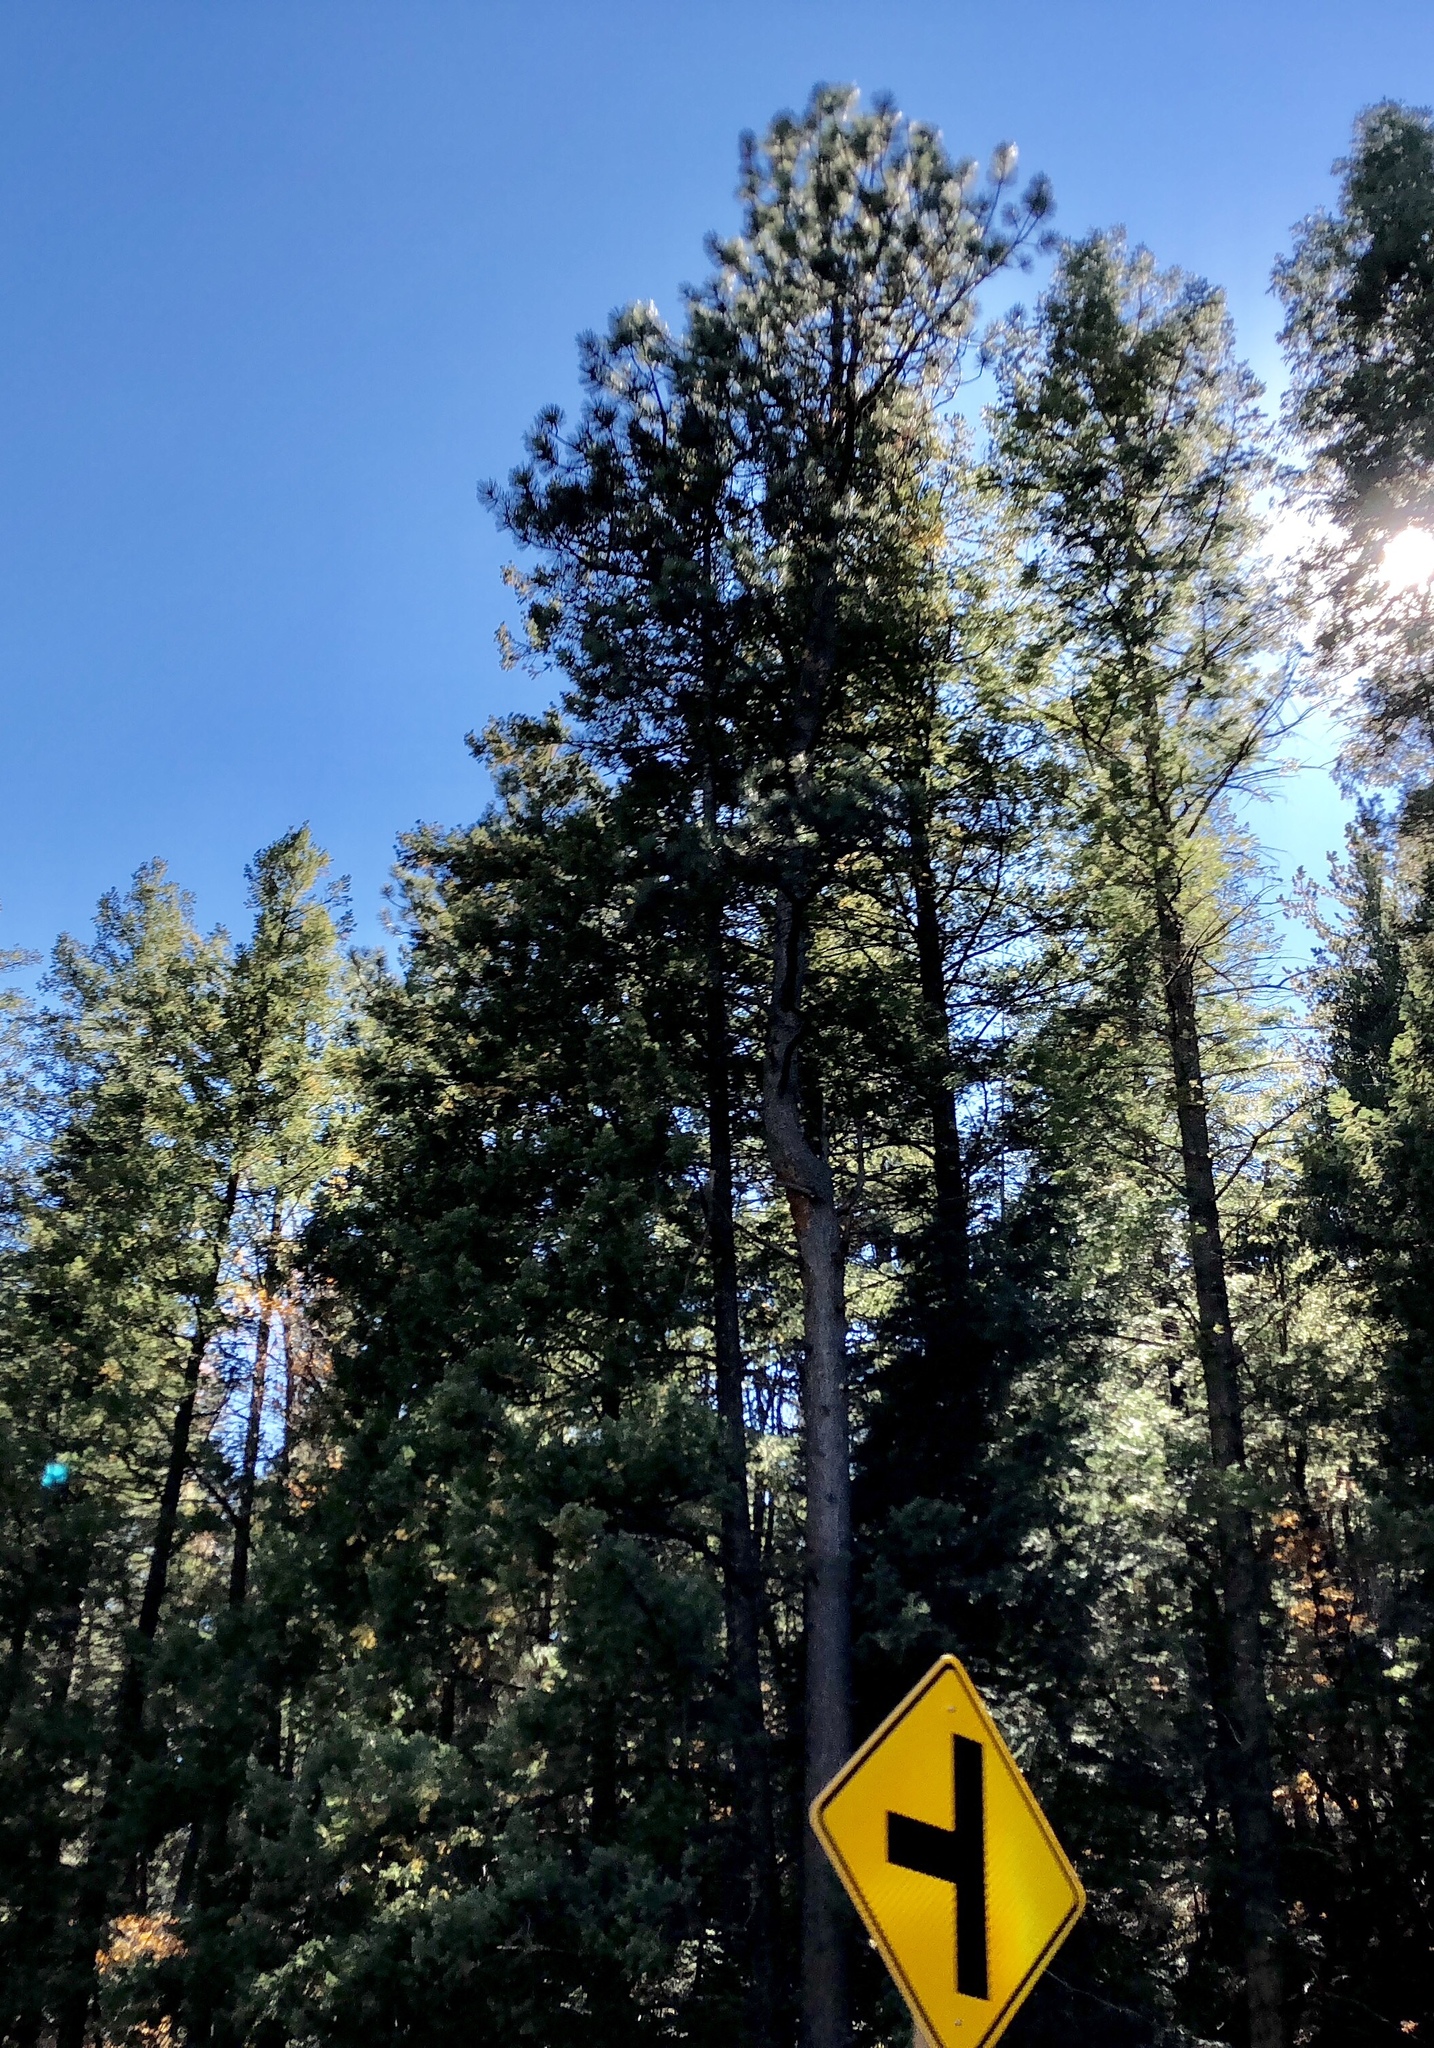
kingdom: Plantae
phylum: Tracheophyta
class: Pinopsida
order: Pinales
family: Pinaceae
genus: Pinus
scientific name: Pinus ponderosa
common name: Western yellow-pine
